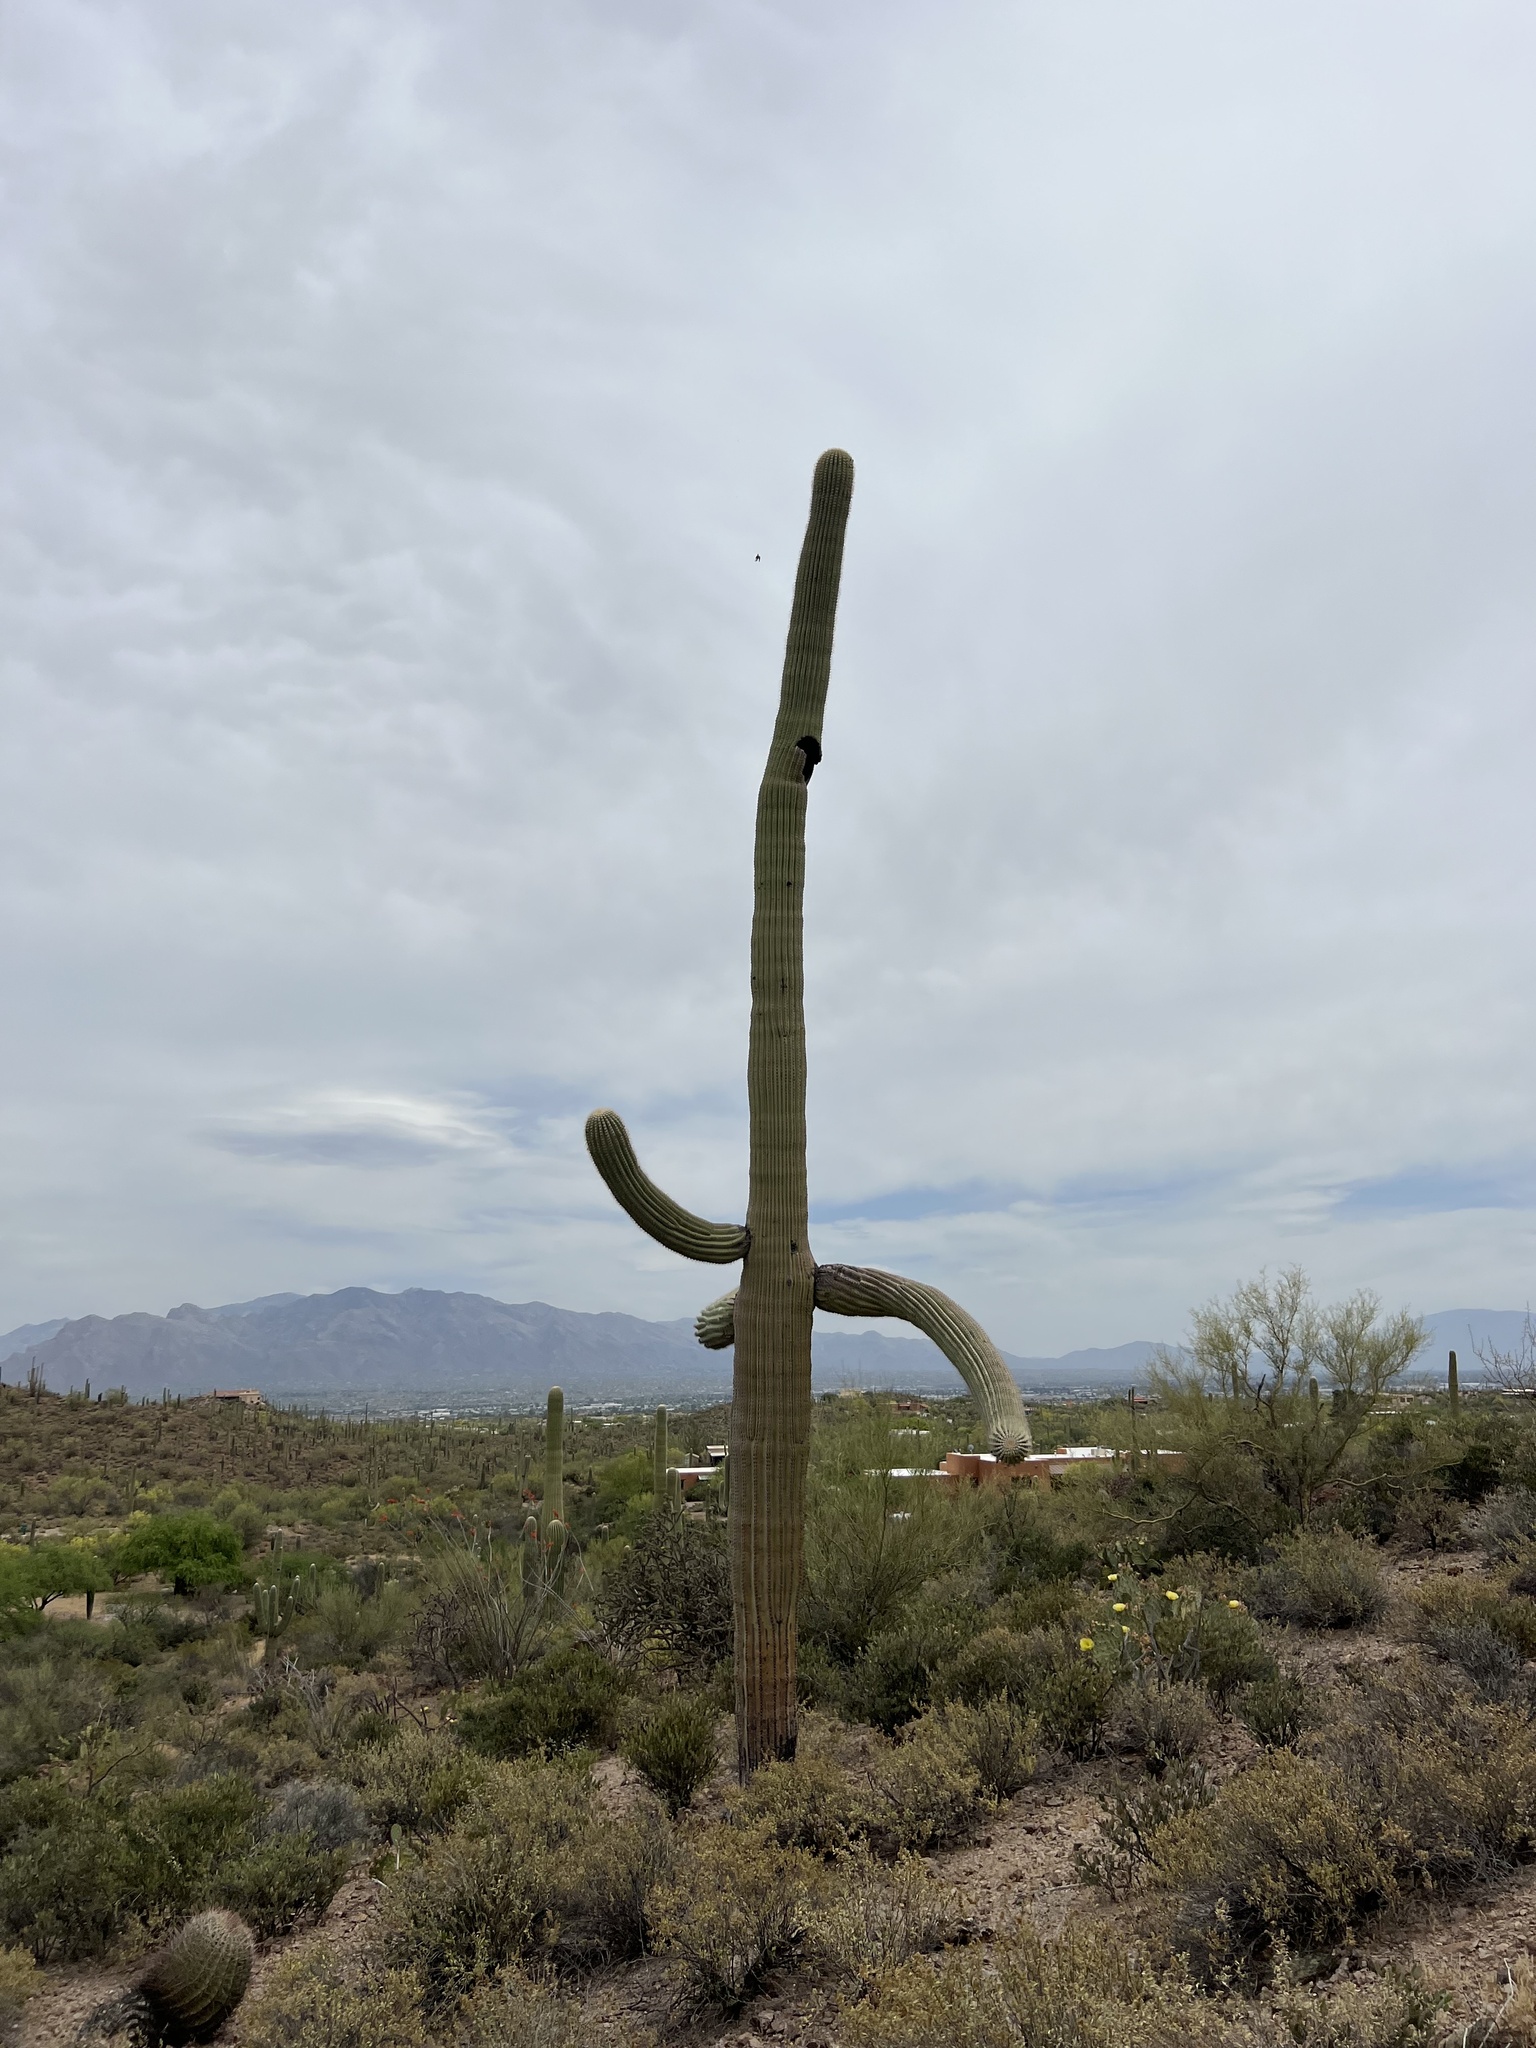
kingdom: Plantae
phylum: Tracheophyta
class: Magnoliopsida
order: Caryophyllales
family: Cactaceae
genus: Carnegiea
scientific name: Carnegiea gigantea
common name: Saguaro
